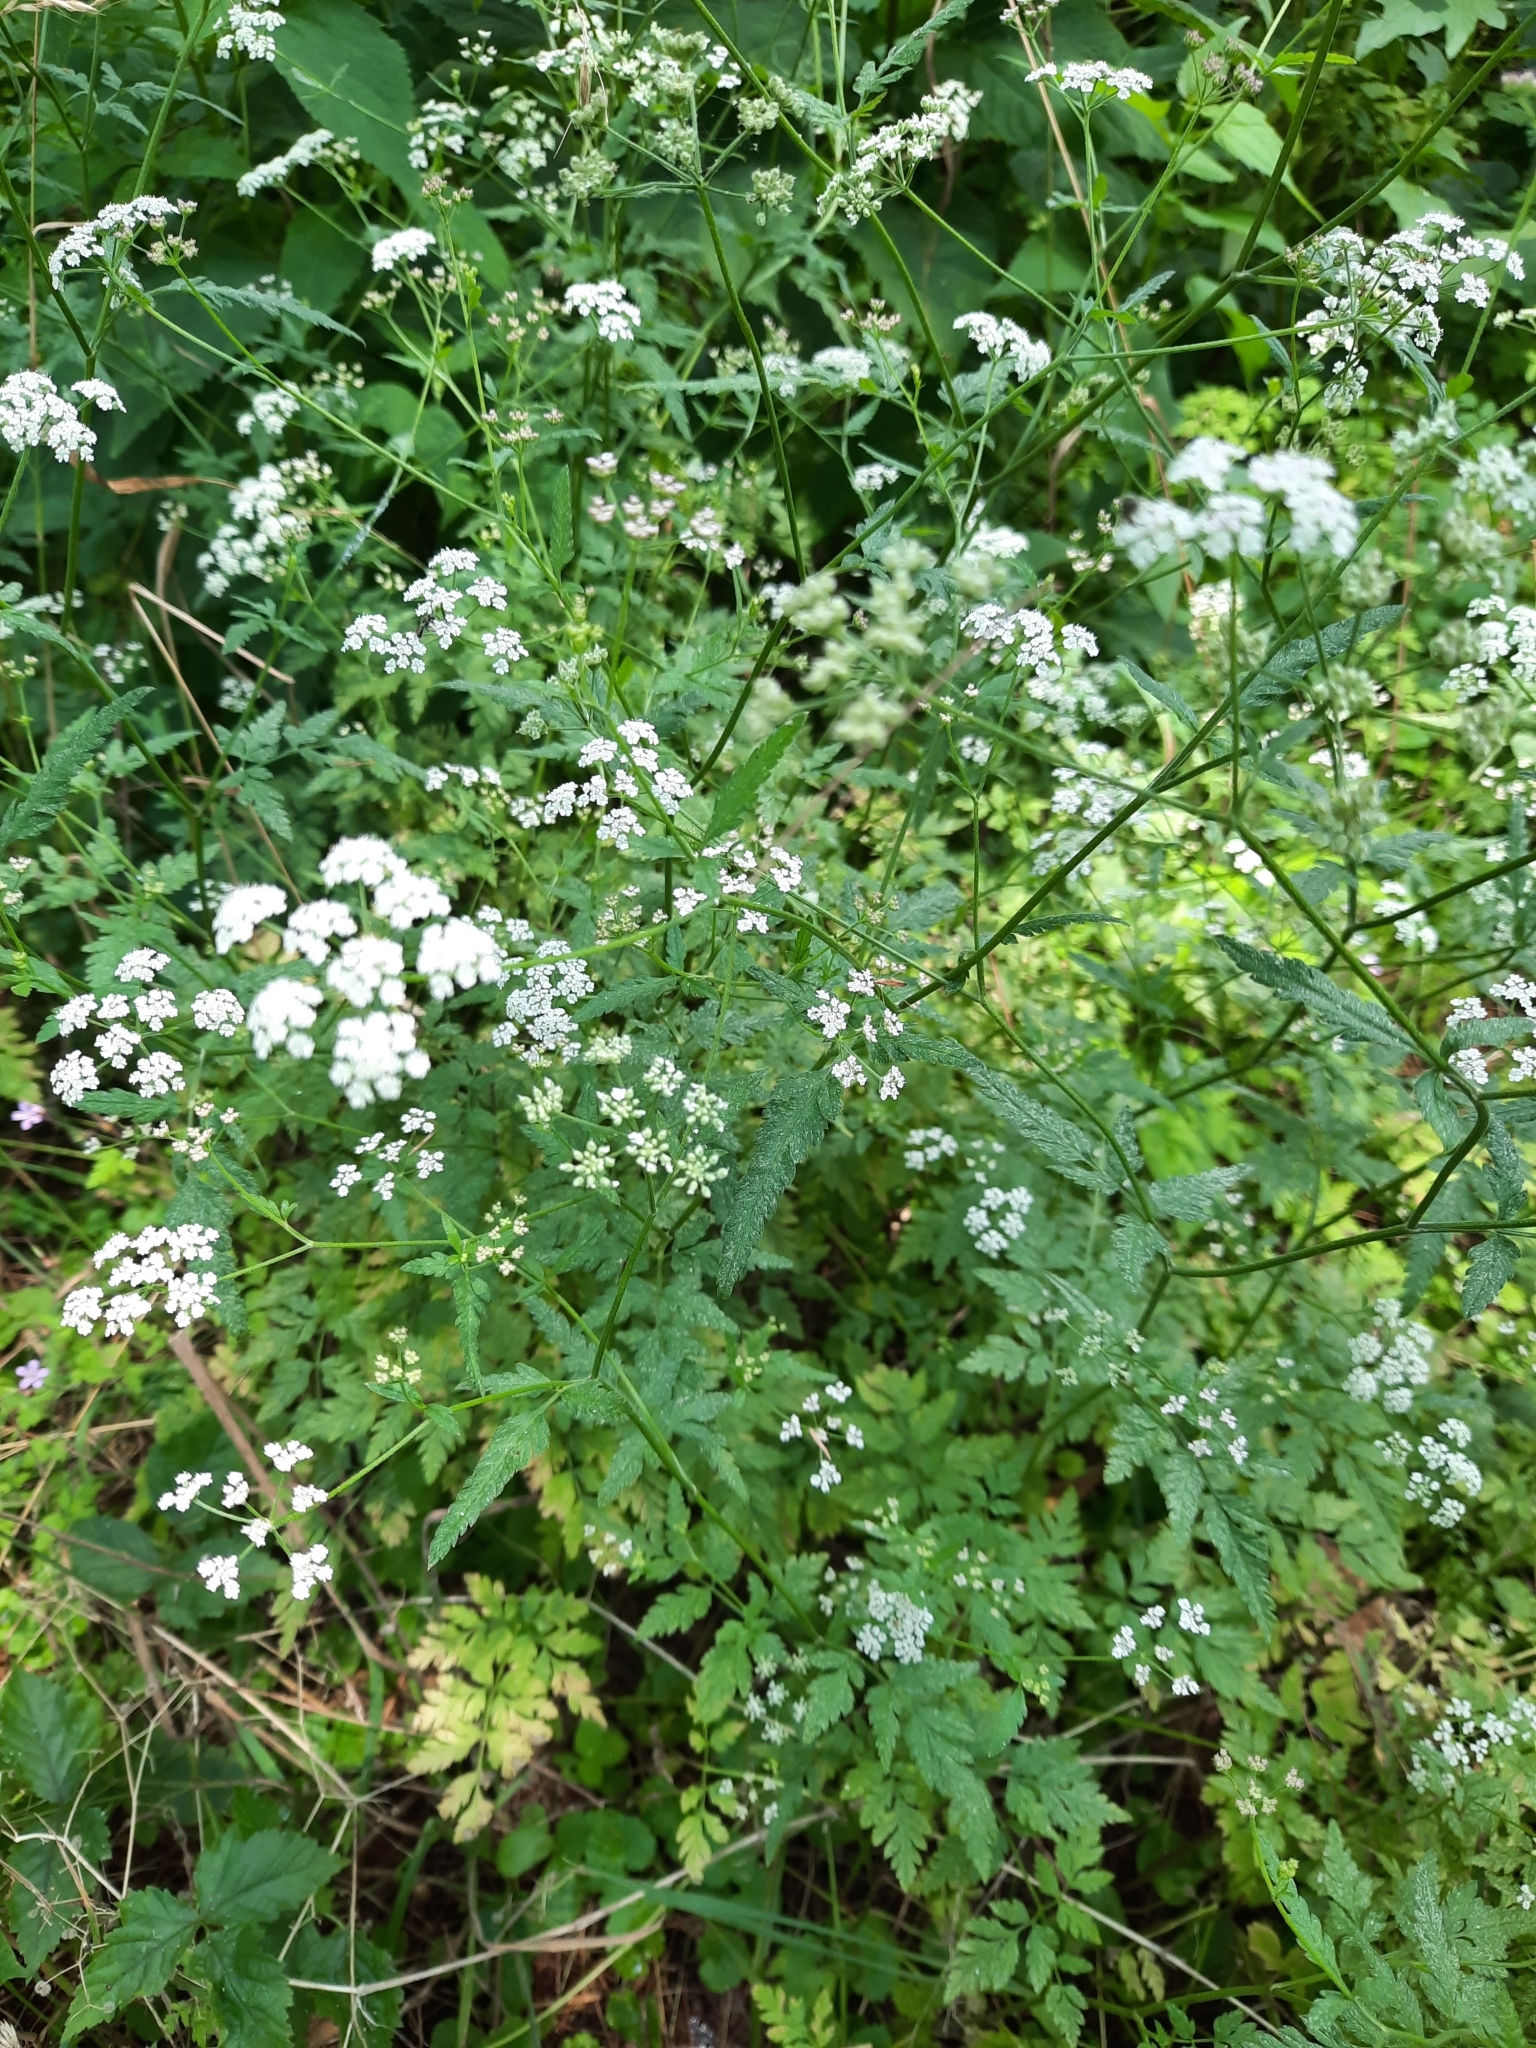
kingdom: Plantae
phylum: Tracheophyta
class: Magnoliopsida
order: Apiales
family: Apiaceae
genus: Torilis
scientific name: Torilis japonica
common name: Upright hedge-parsley
